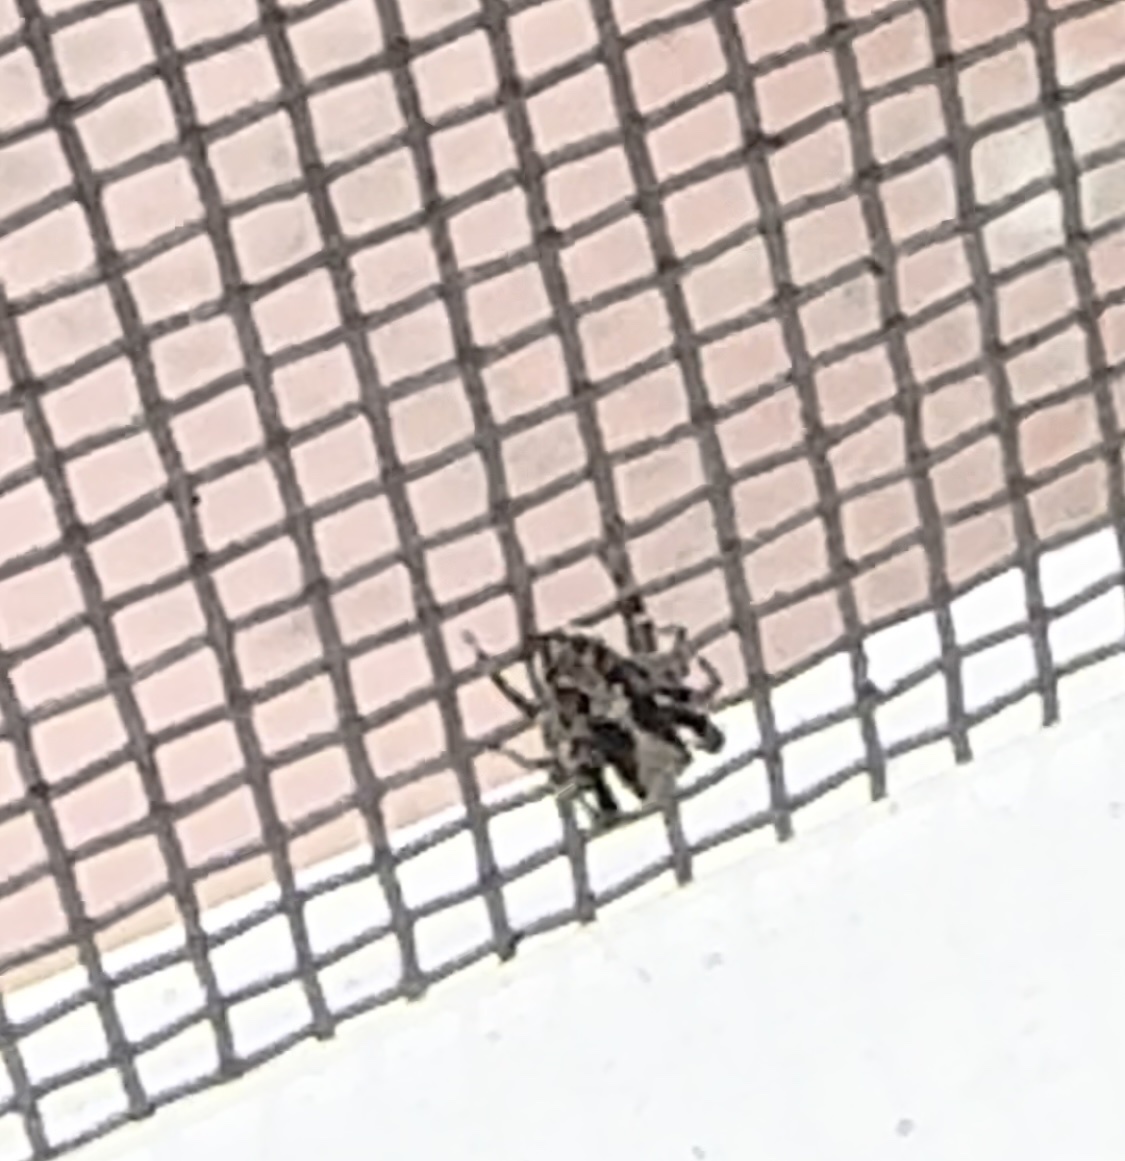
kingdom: Animalia
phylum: Arthropoda
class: Arachnida
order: Araneae
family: Salticidae
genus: Pseudeuophrys
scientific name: Pseudeuophrys lanigera
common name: Jumping spider
